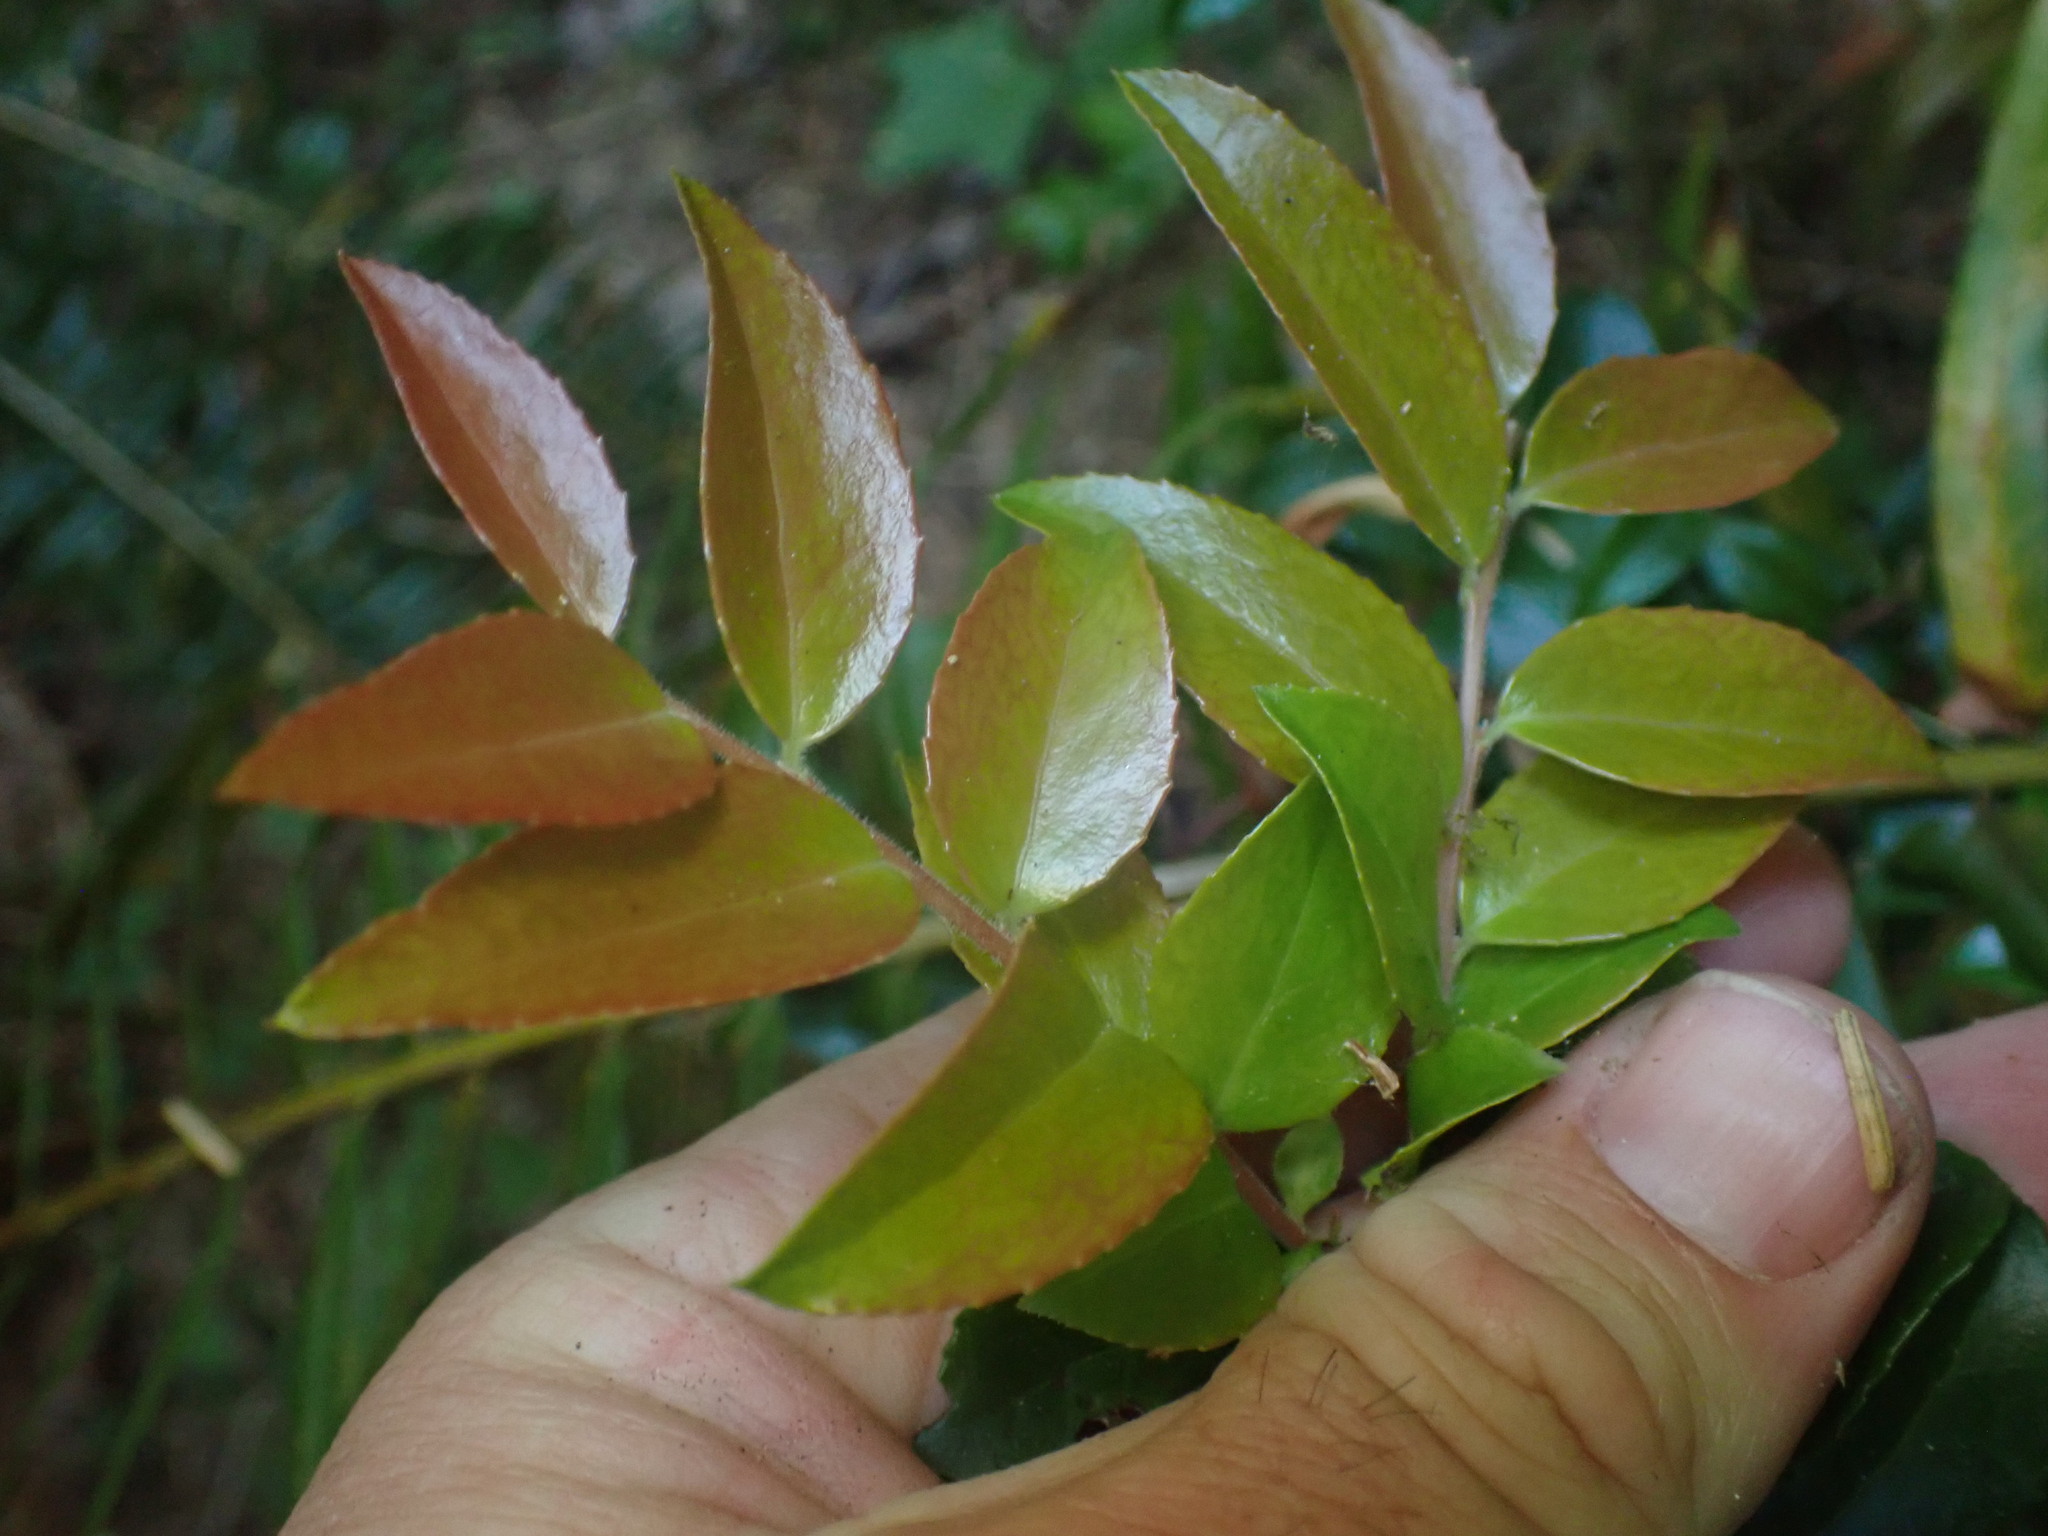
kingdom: Plantae
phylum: Tracheophyta
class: Magnoliopsida
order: Ericales
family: Ericaceae
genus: Vaccinium
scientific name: Vaccinium ovatum
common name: California-huckleberry
